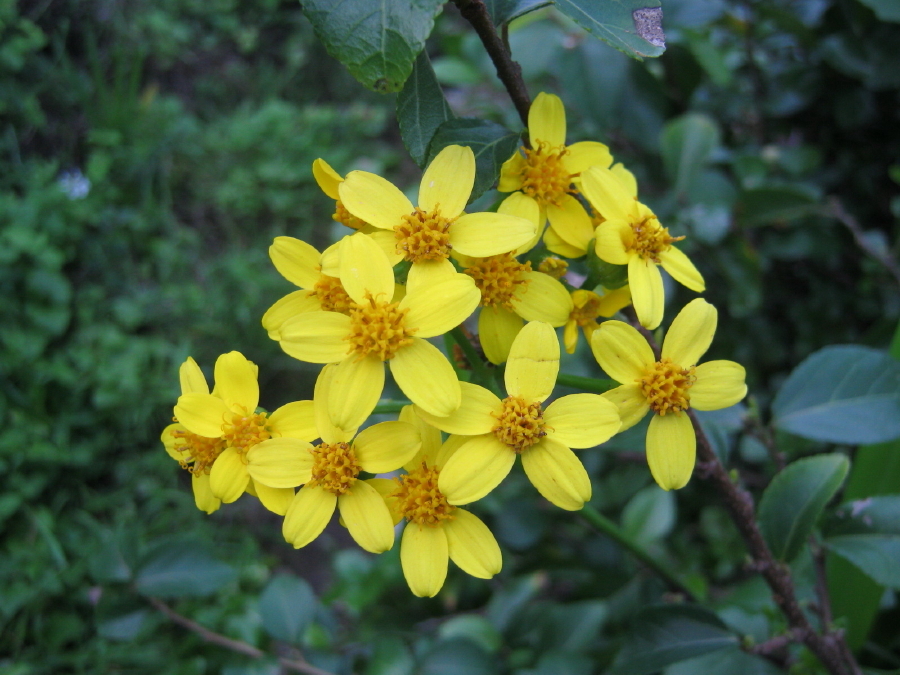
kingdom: Plantae
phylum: Tracheophyta
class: Magnoliopsida
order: Asterales
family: Asteraceae
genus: Senecio
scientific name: Senecio angulatus
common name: Climbing groundsel
